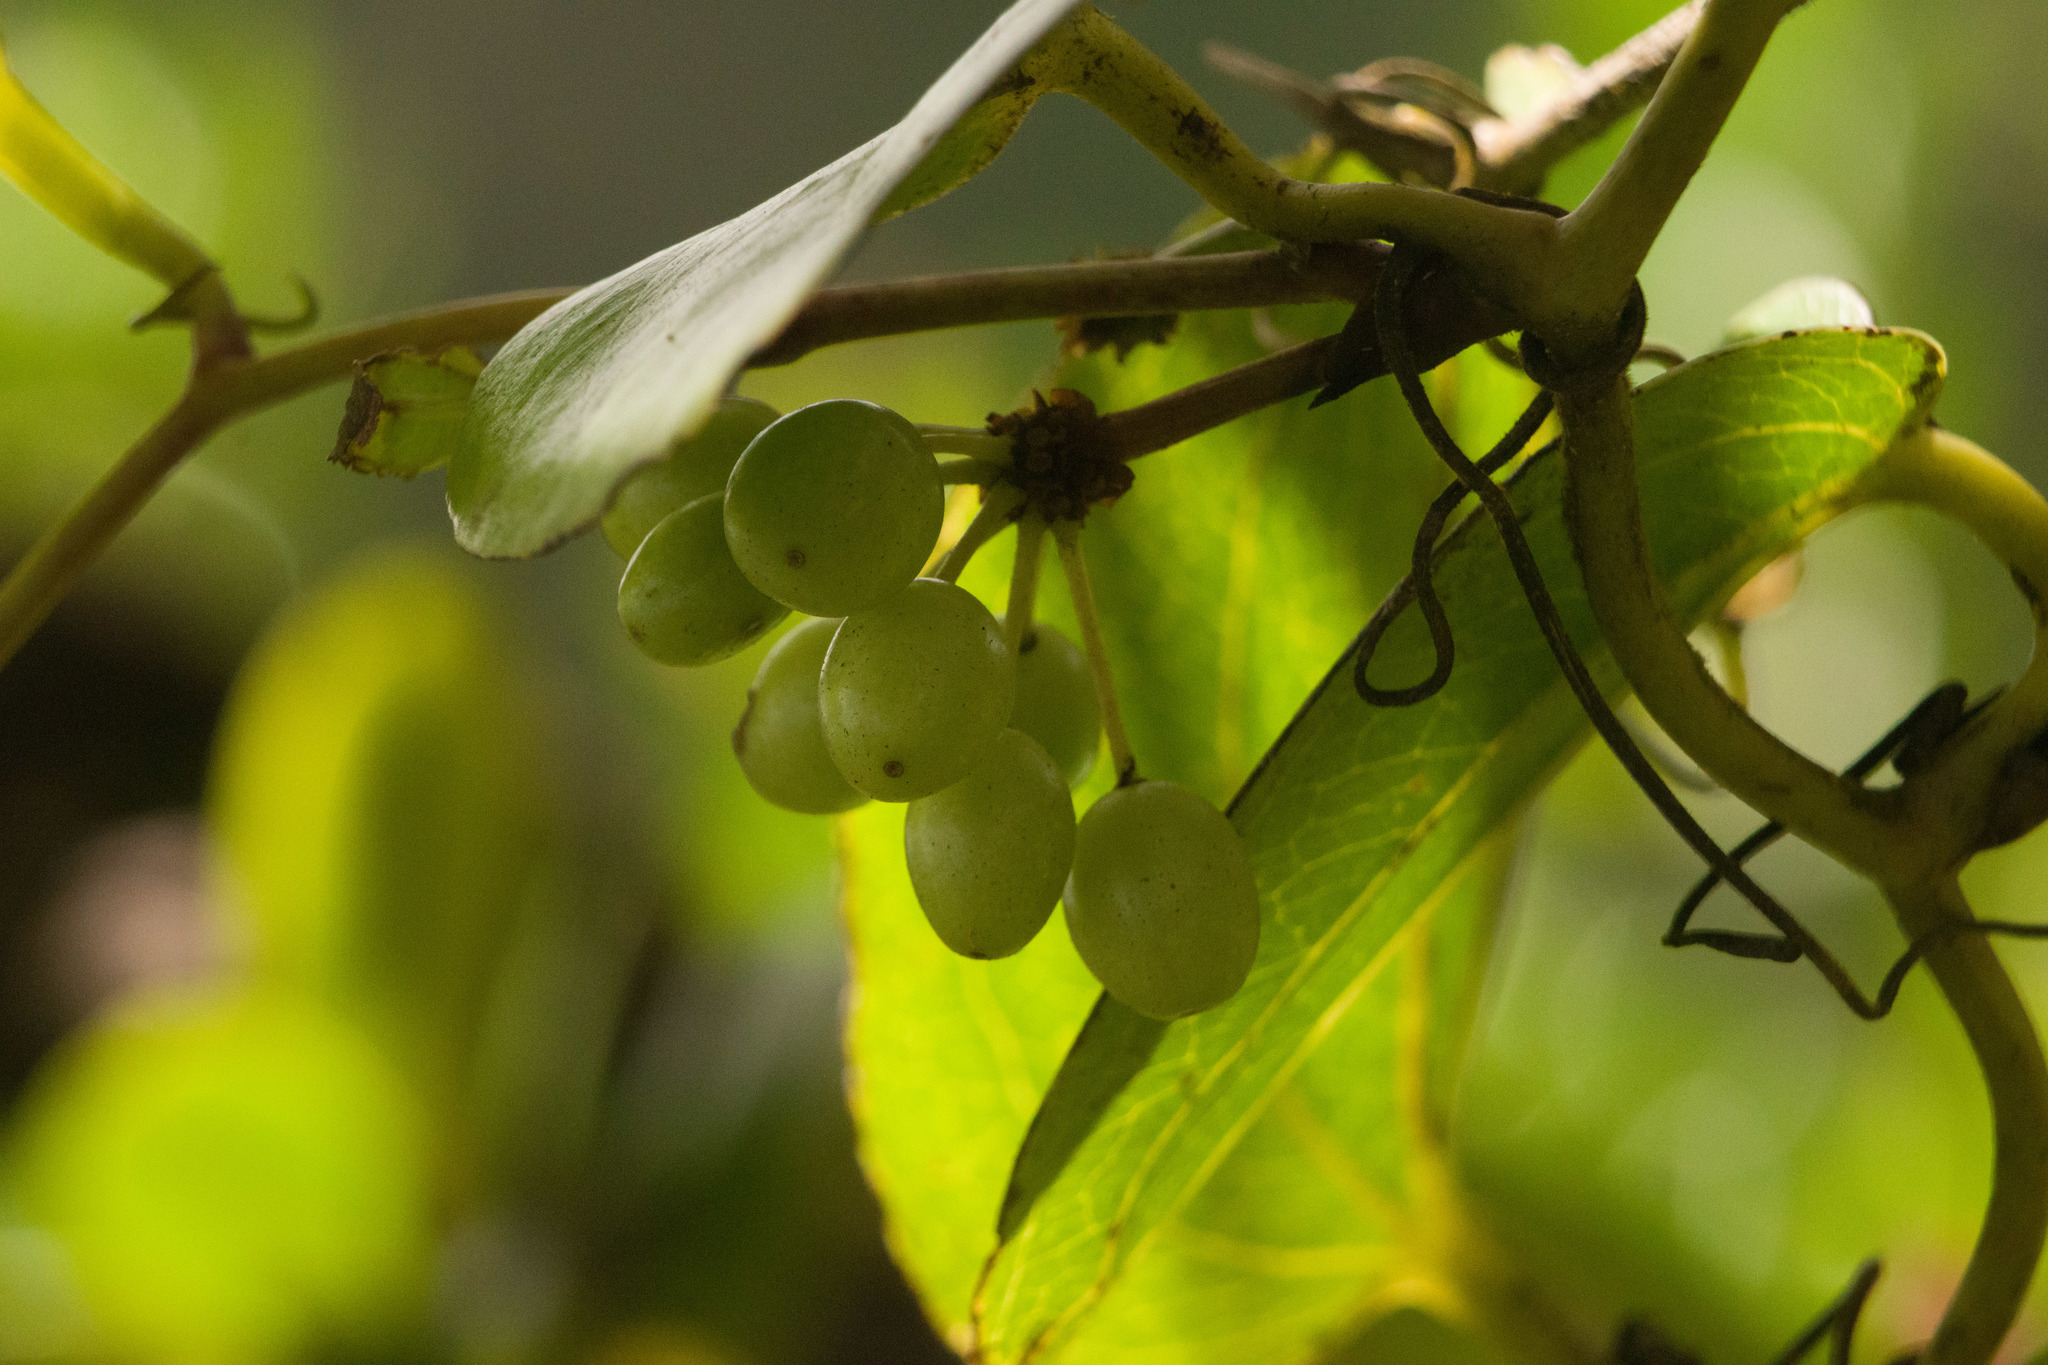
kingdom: Plantae
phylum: Tracheophyta
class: Liliopsida
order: Liliales
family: Smilacaceae
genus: Smilax
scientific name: Smilax melastomifolia
